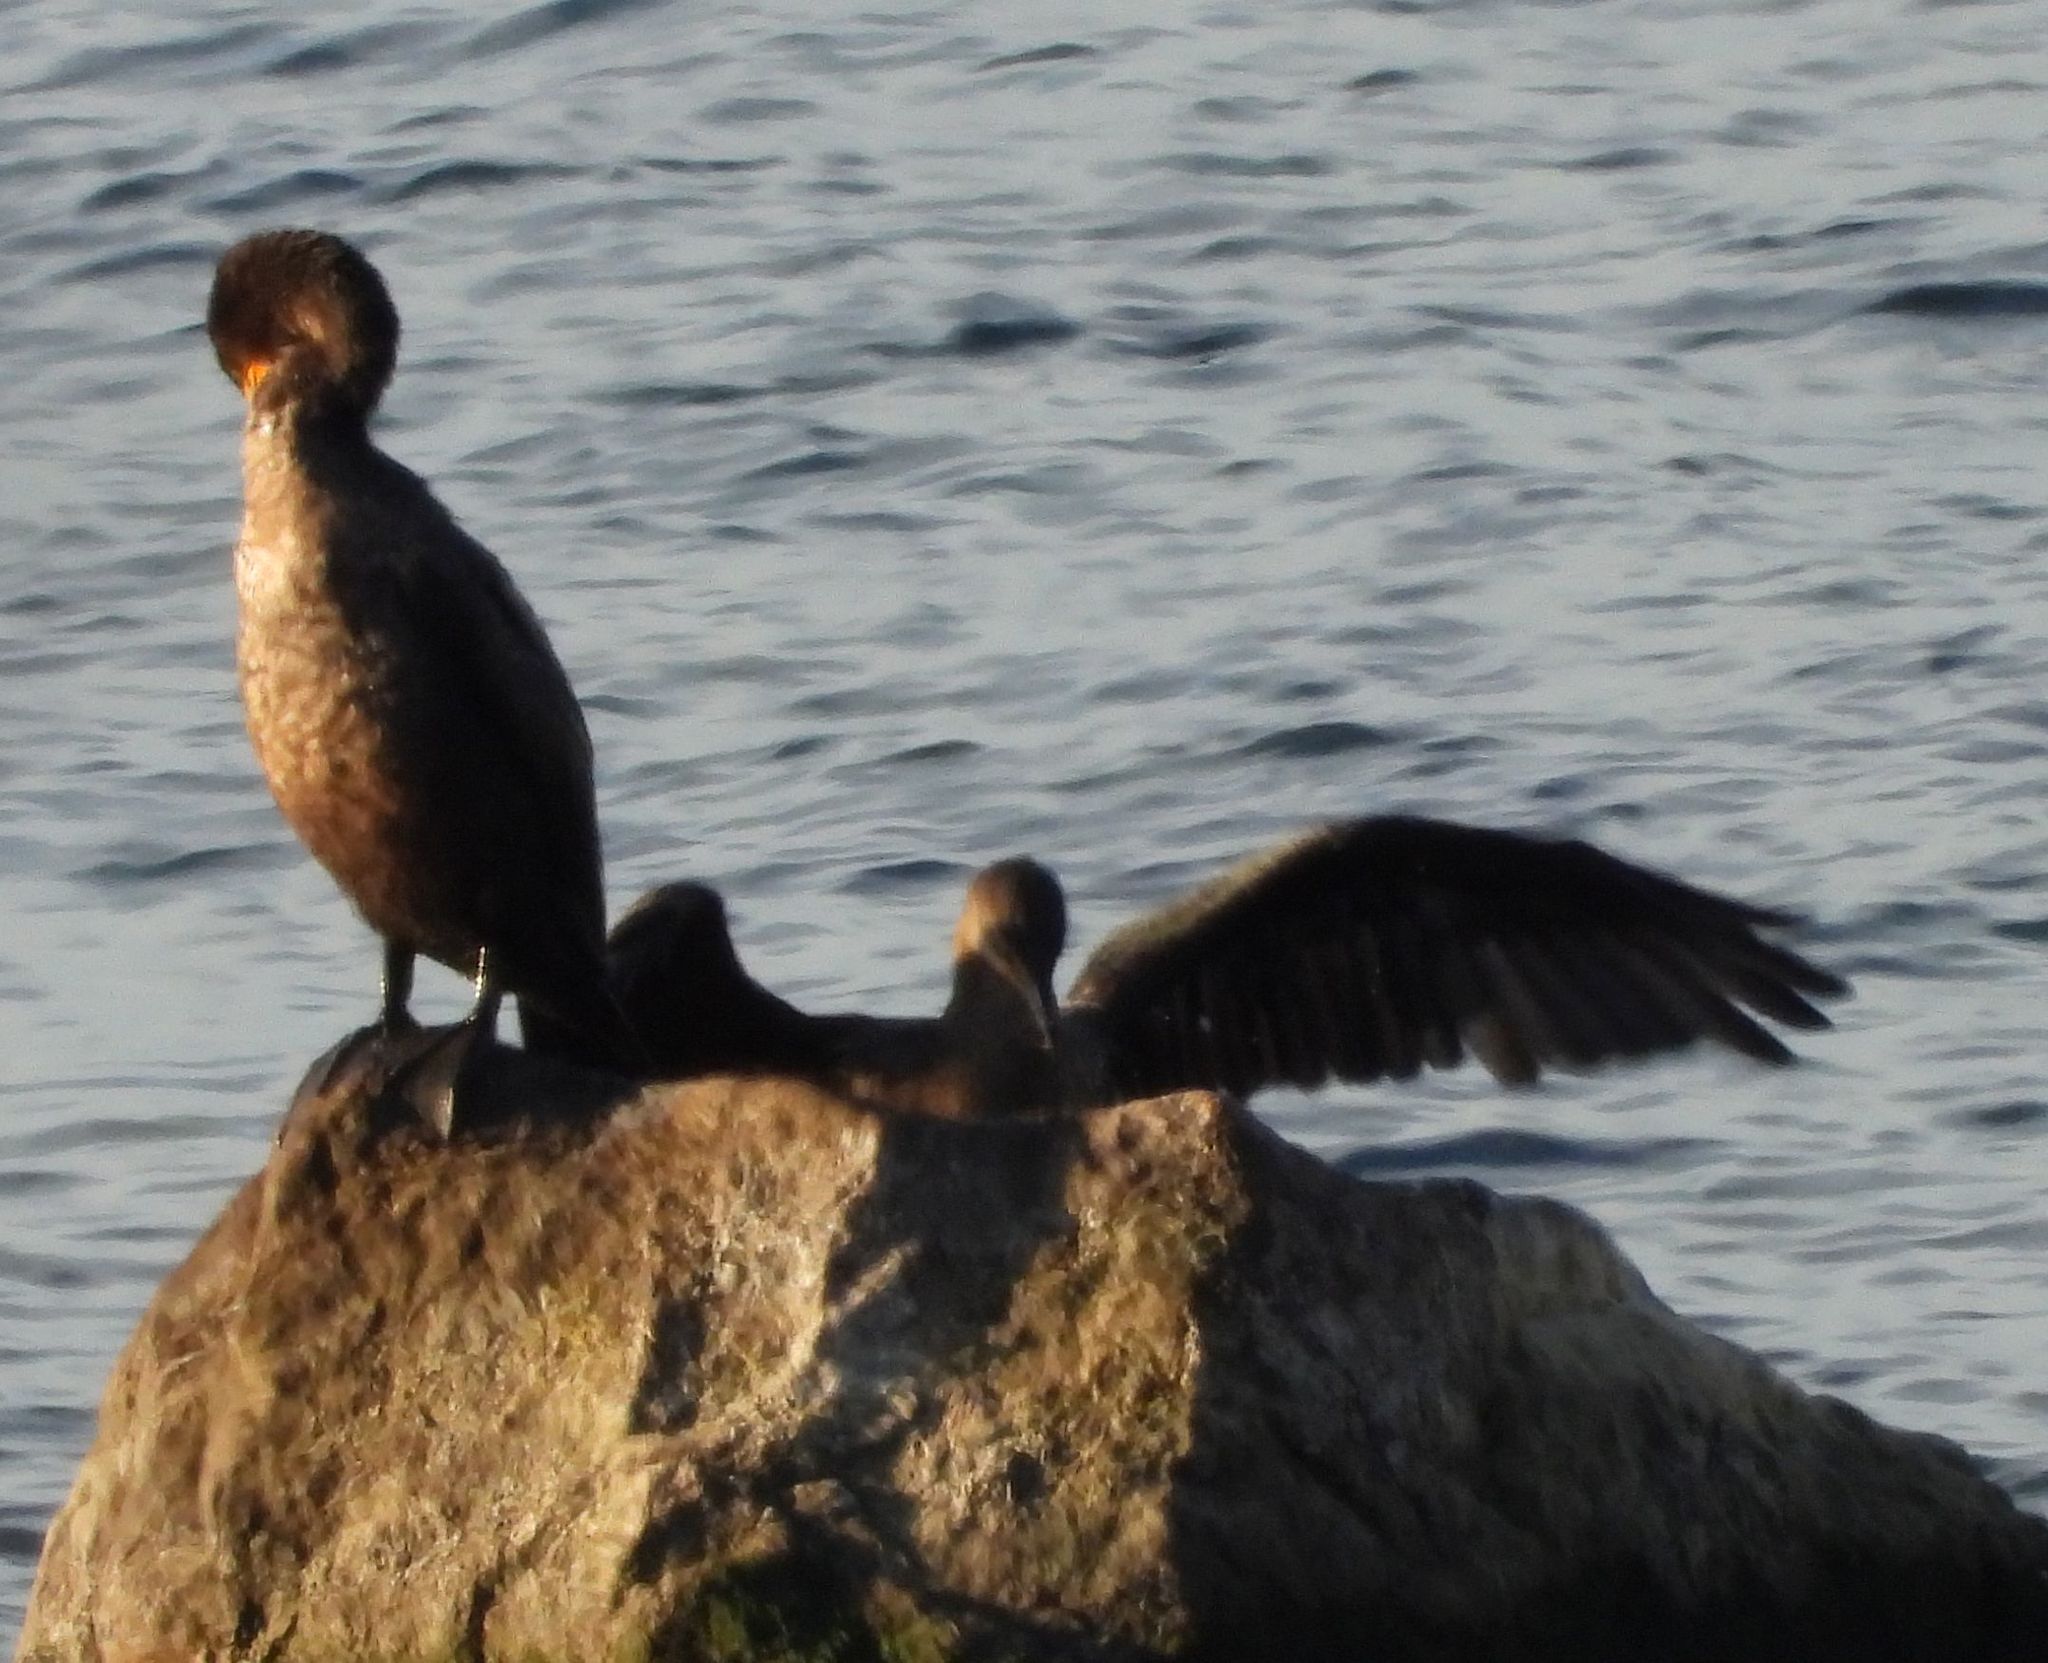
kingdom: Animalia
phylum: Chordata
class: Aves
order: Suliformes
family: Phalacrocoracidae
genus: Phalacrocorax
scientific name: Phalacrocorax auritus
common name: Double-crested cormorant
